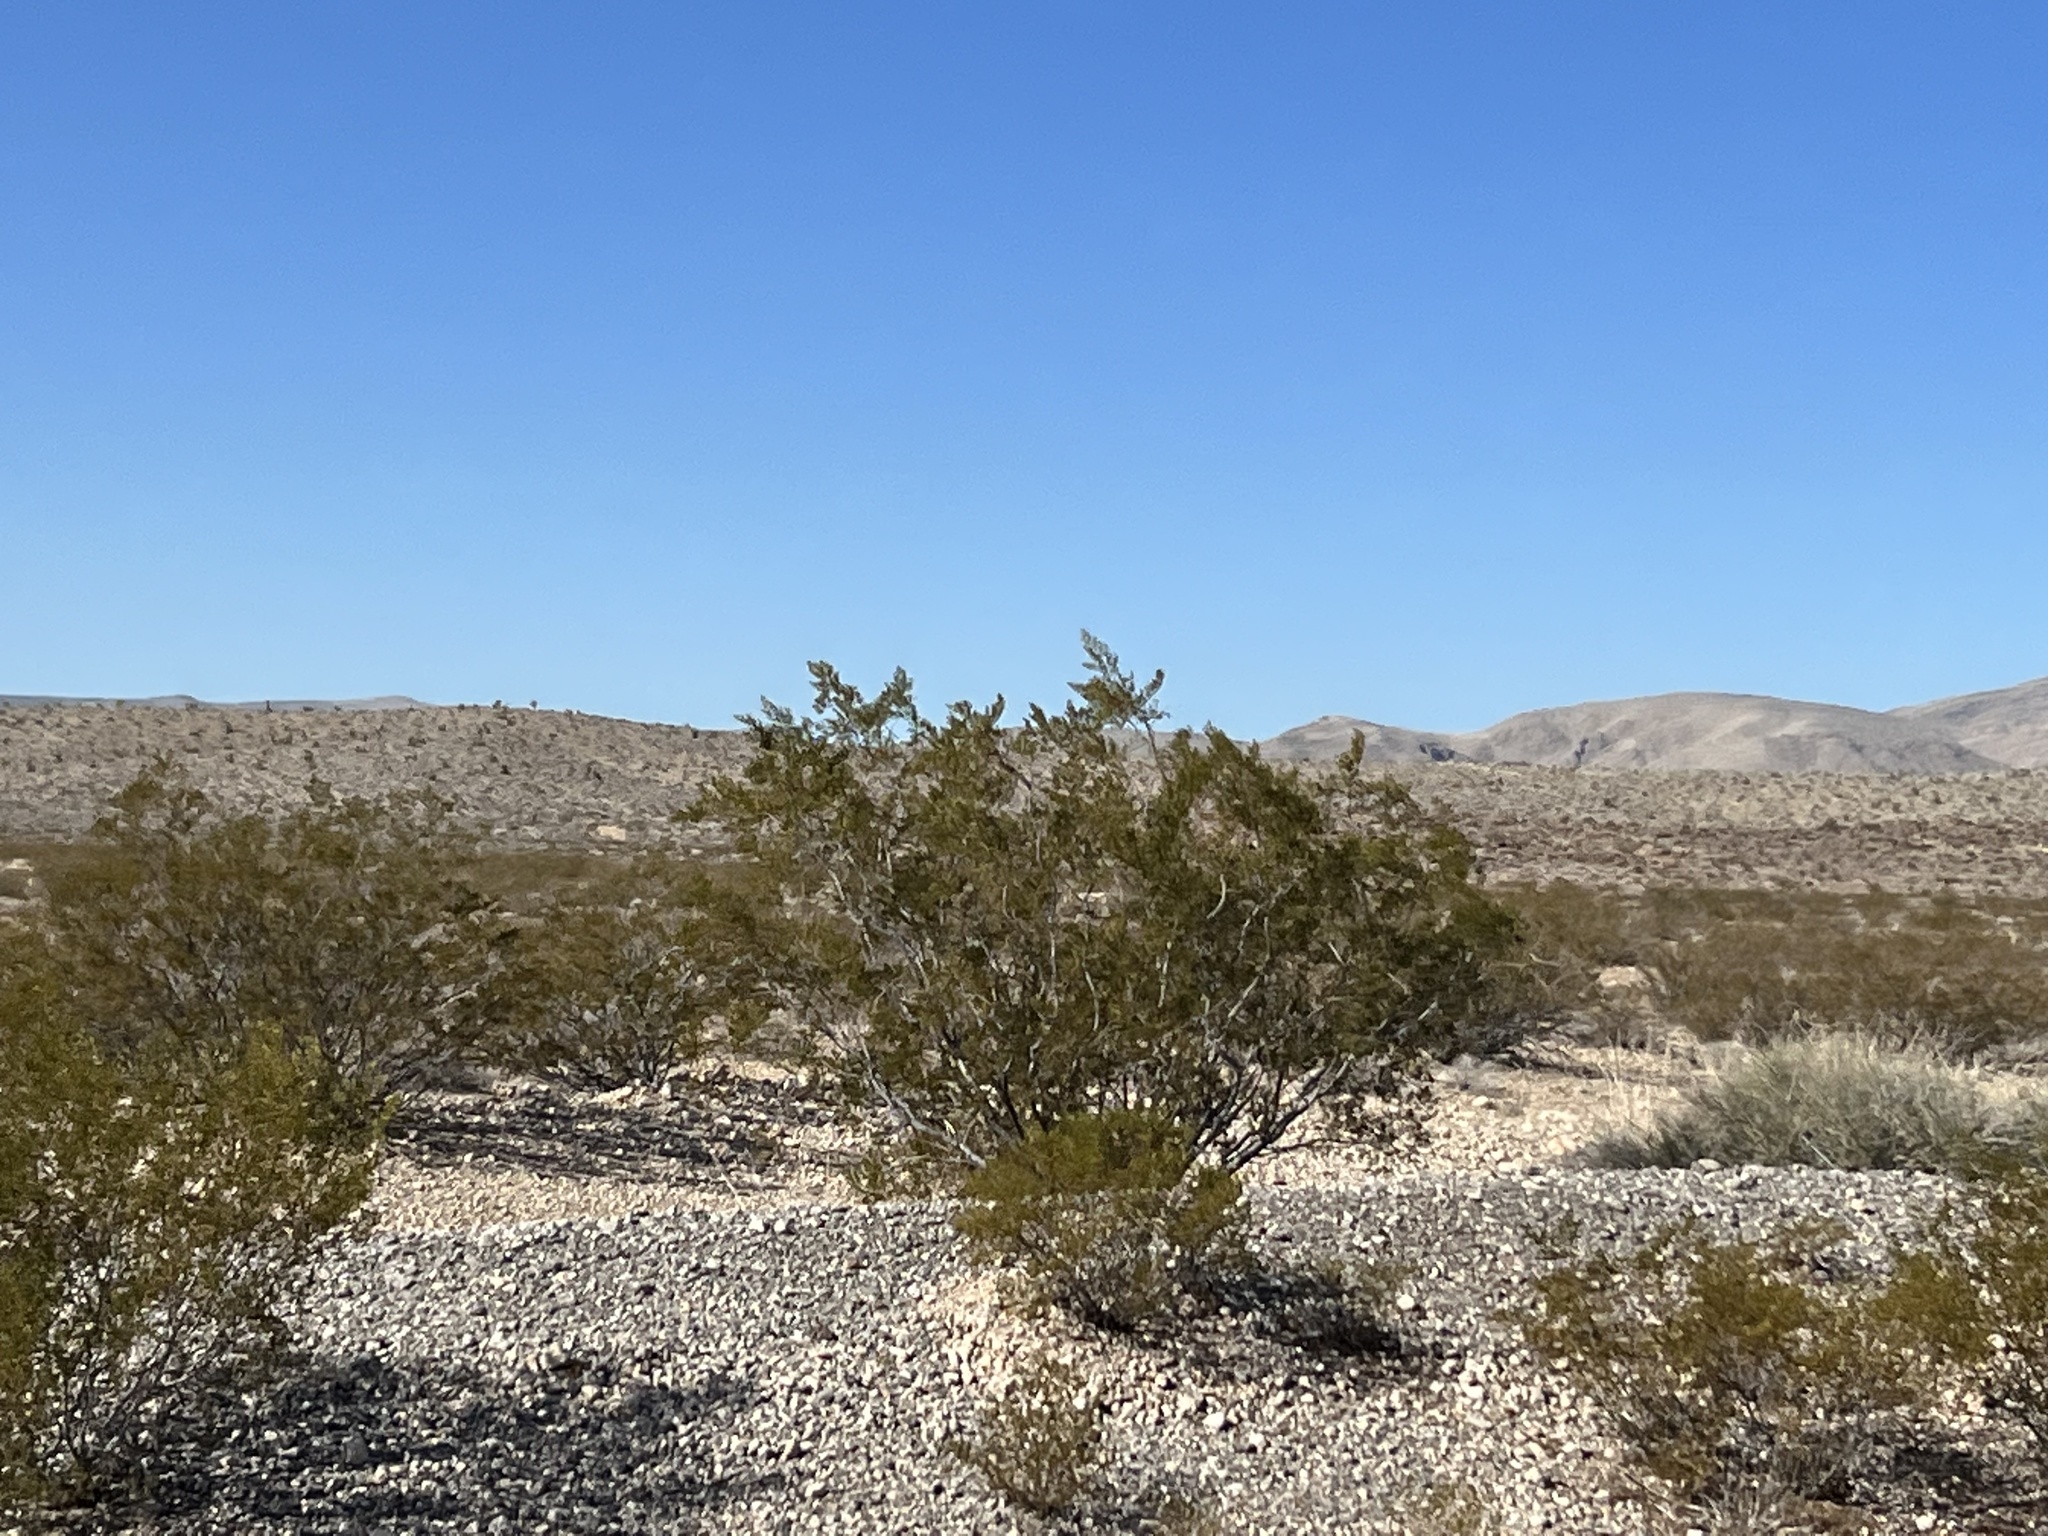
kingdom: Plantae
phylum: Tracheophyta
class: Magnoliopsida
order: Zygophyllales
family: Zygophyllaceae
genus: Larrea
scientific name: Larrea tridentata
